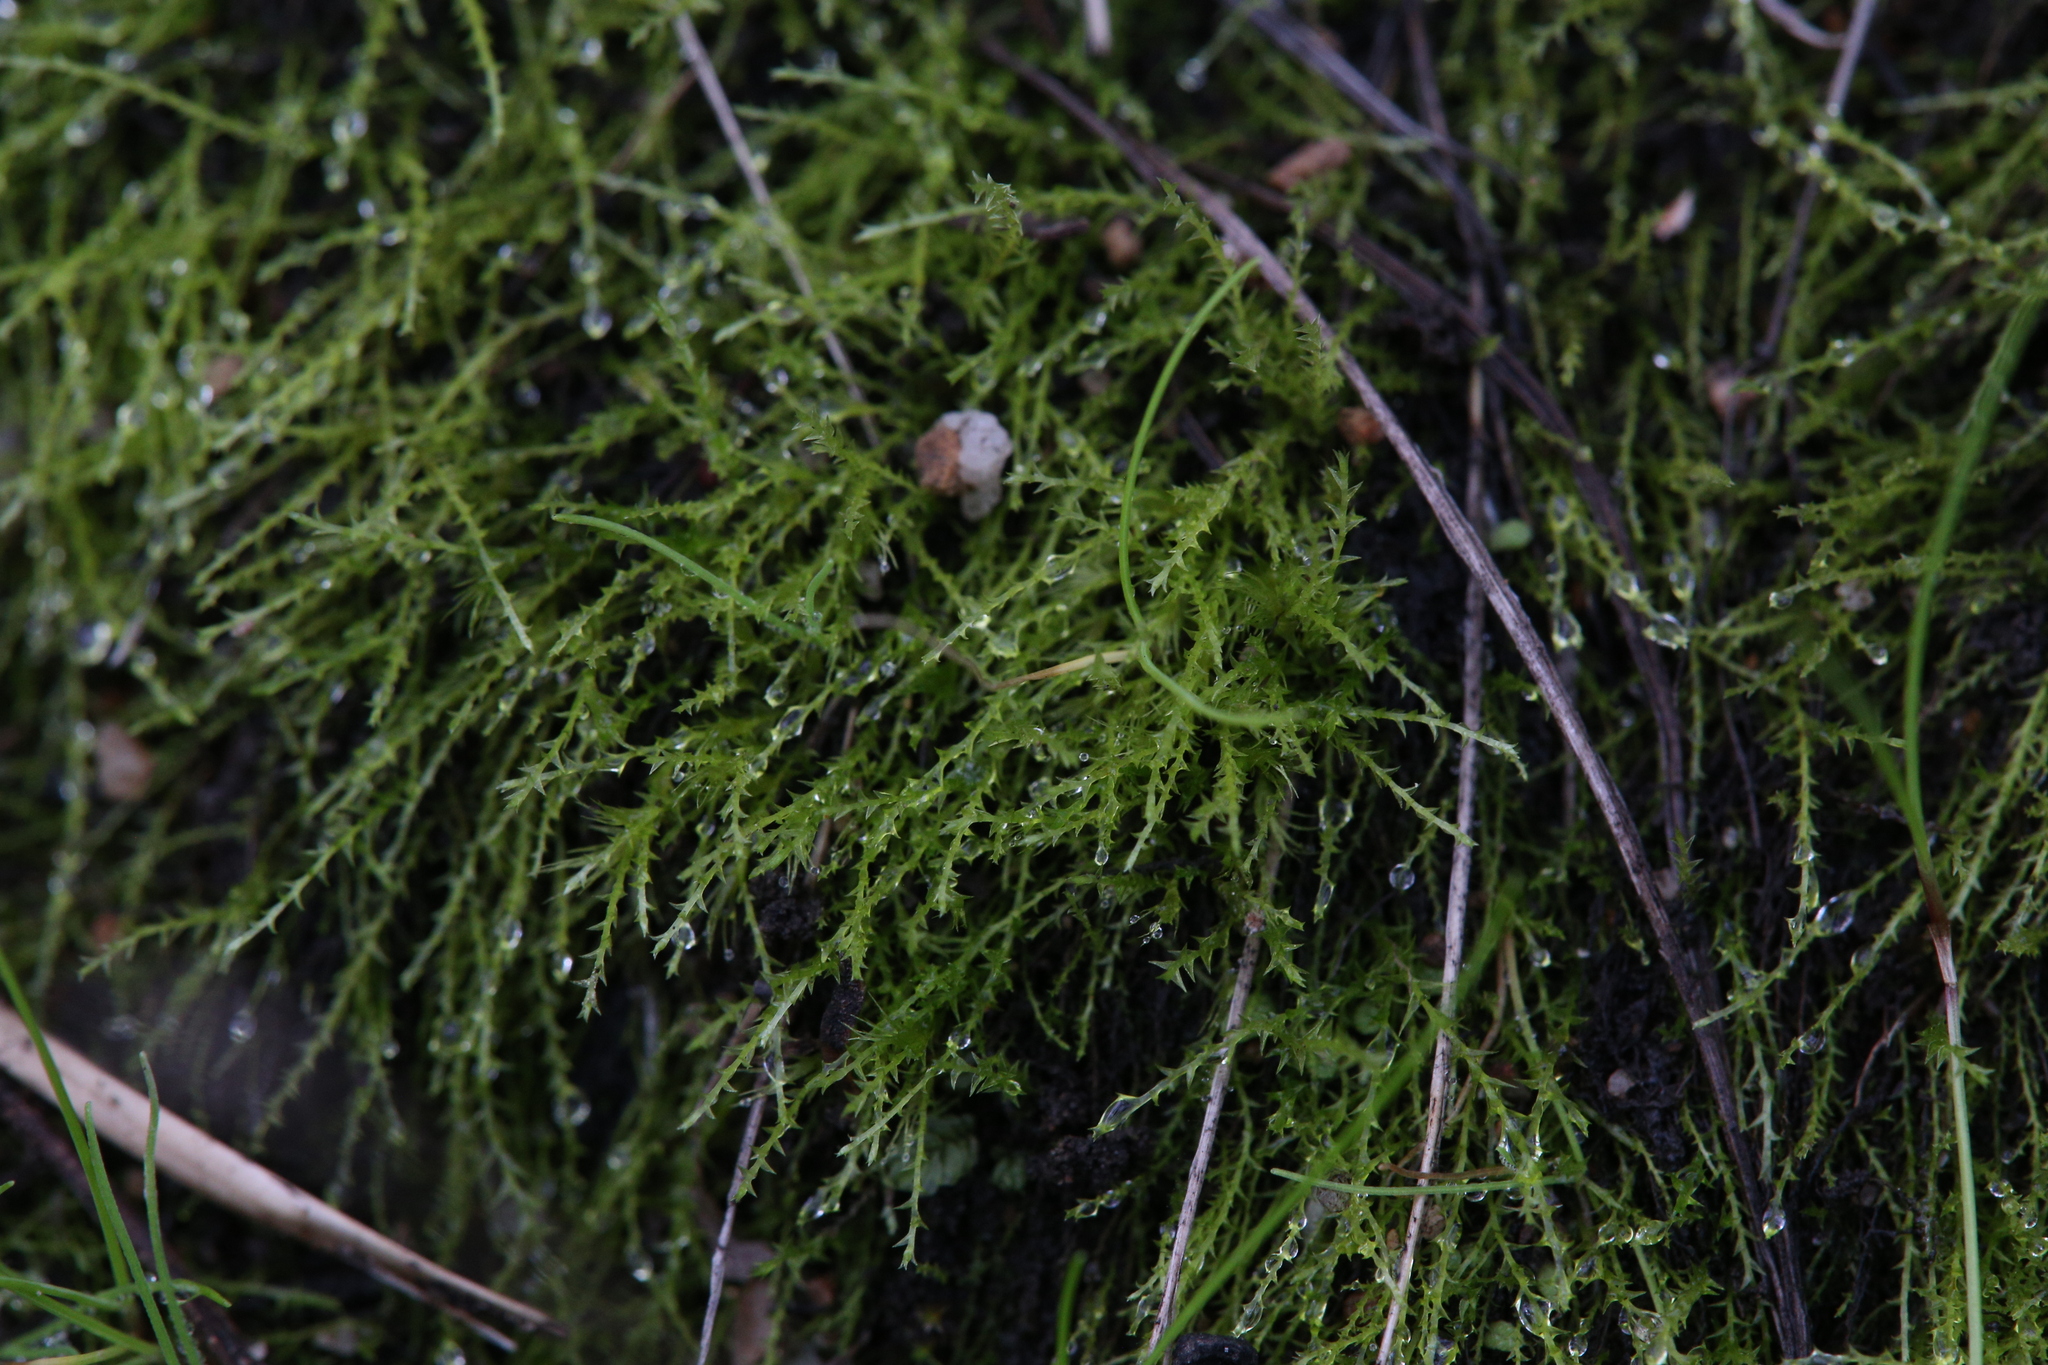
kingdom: Plantae
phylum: Bryophyta
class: Bryopsida
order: Archidiales
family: Archidiaceae
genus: Archidium
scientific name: Archidium rehmannii
